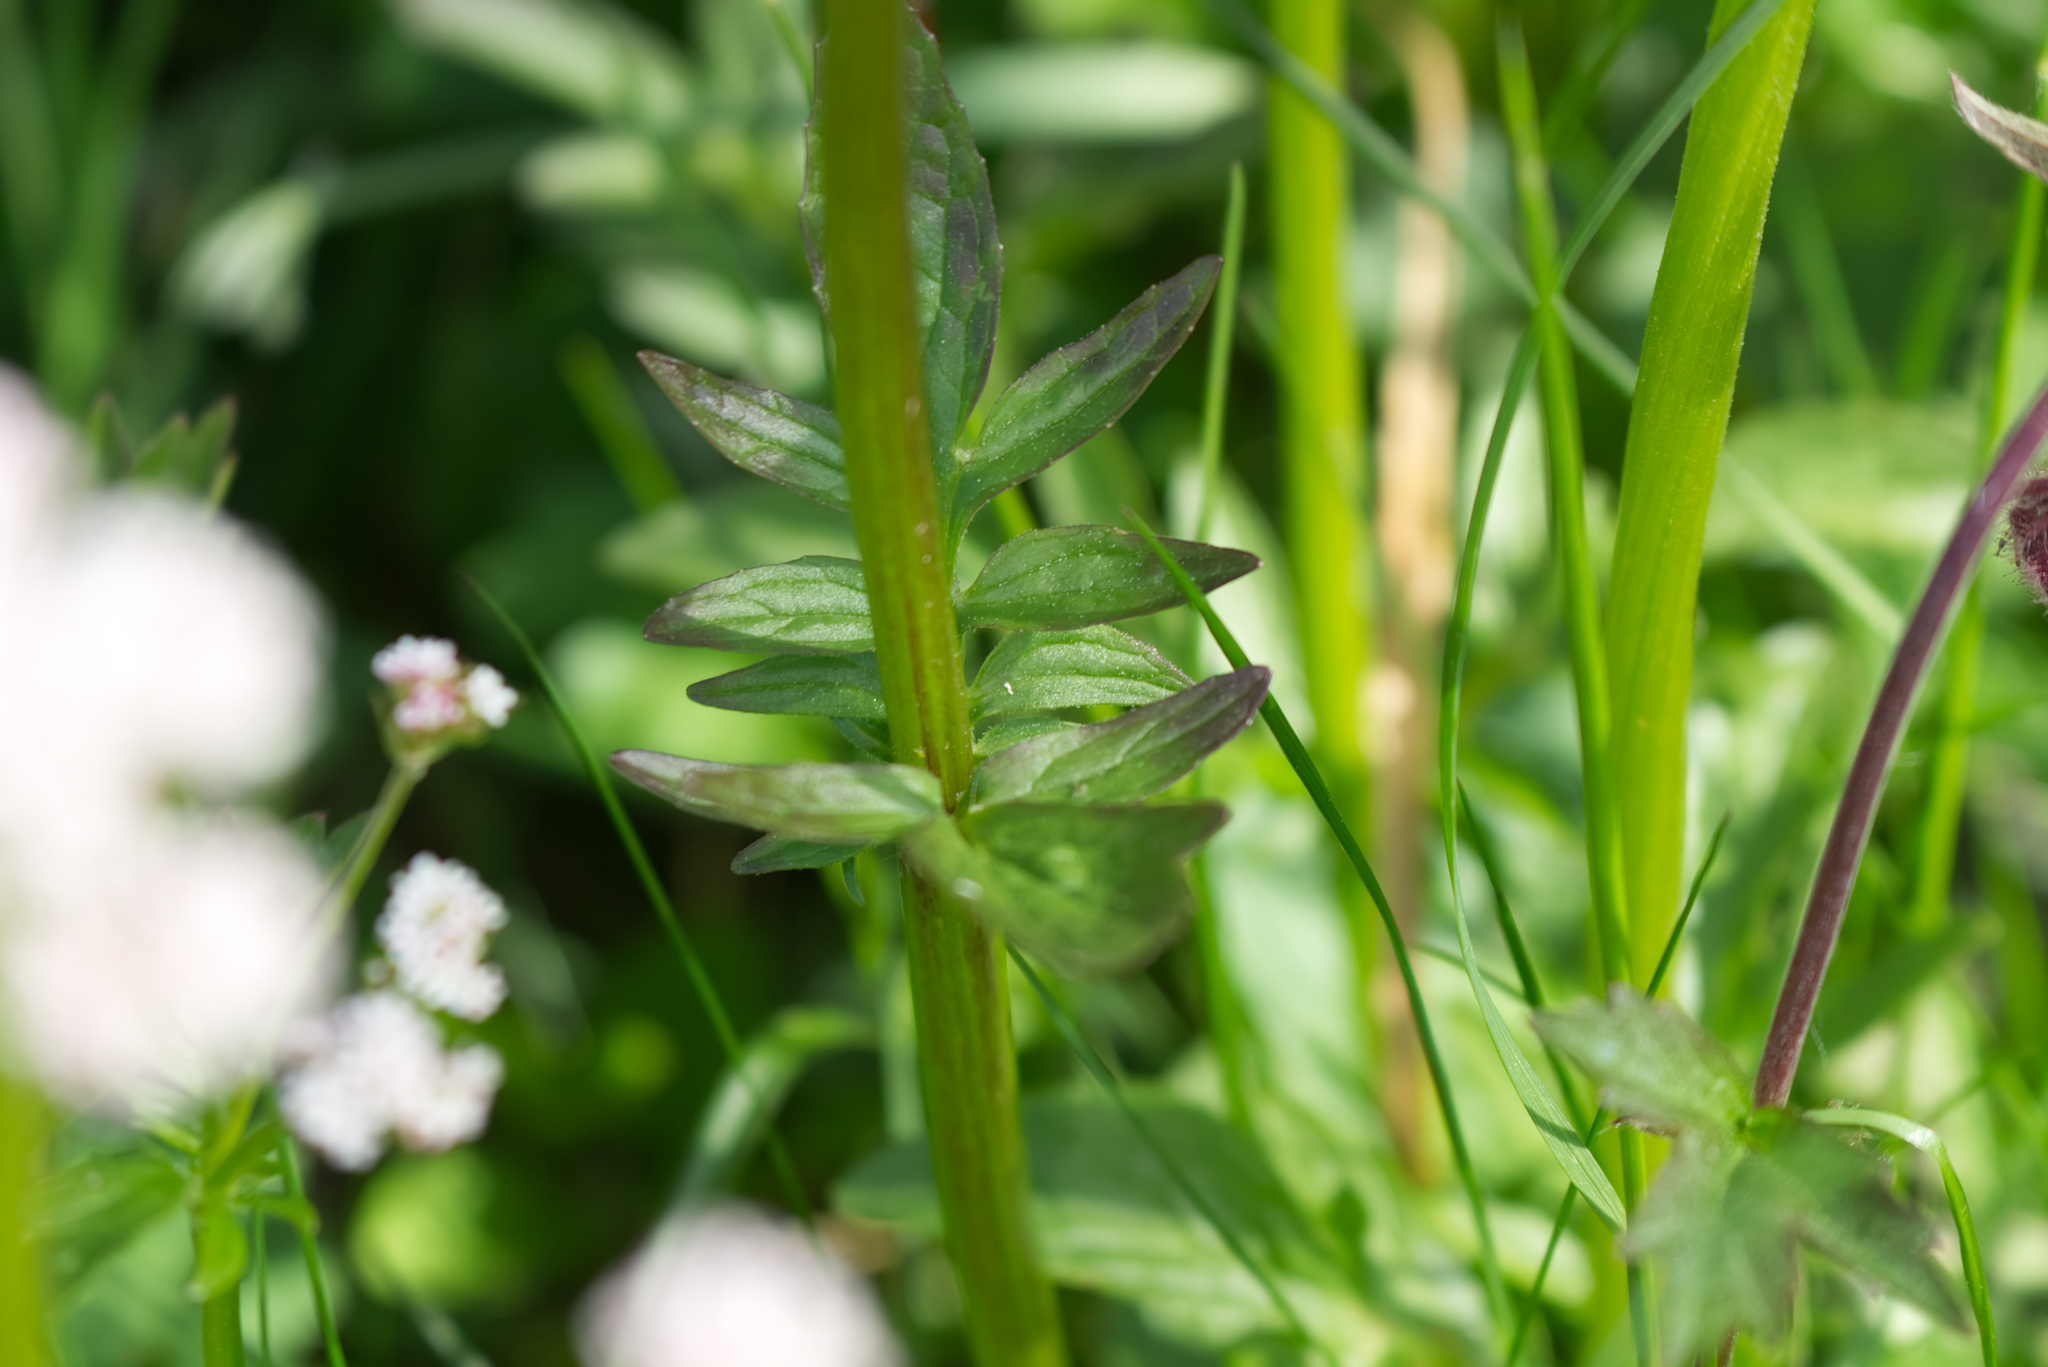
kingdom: Plantae
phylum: Tracheophyta
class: Magnoliopsida
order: Dipsacales
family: Caprifoliaceae
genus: Valeriana
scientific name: Valeriana dioica
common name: Marsh valerian
